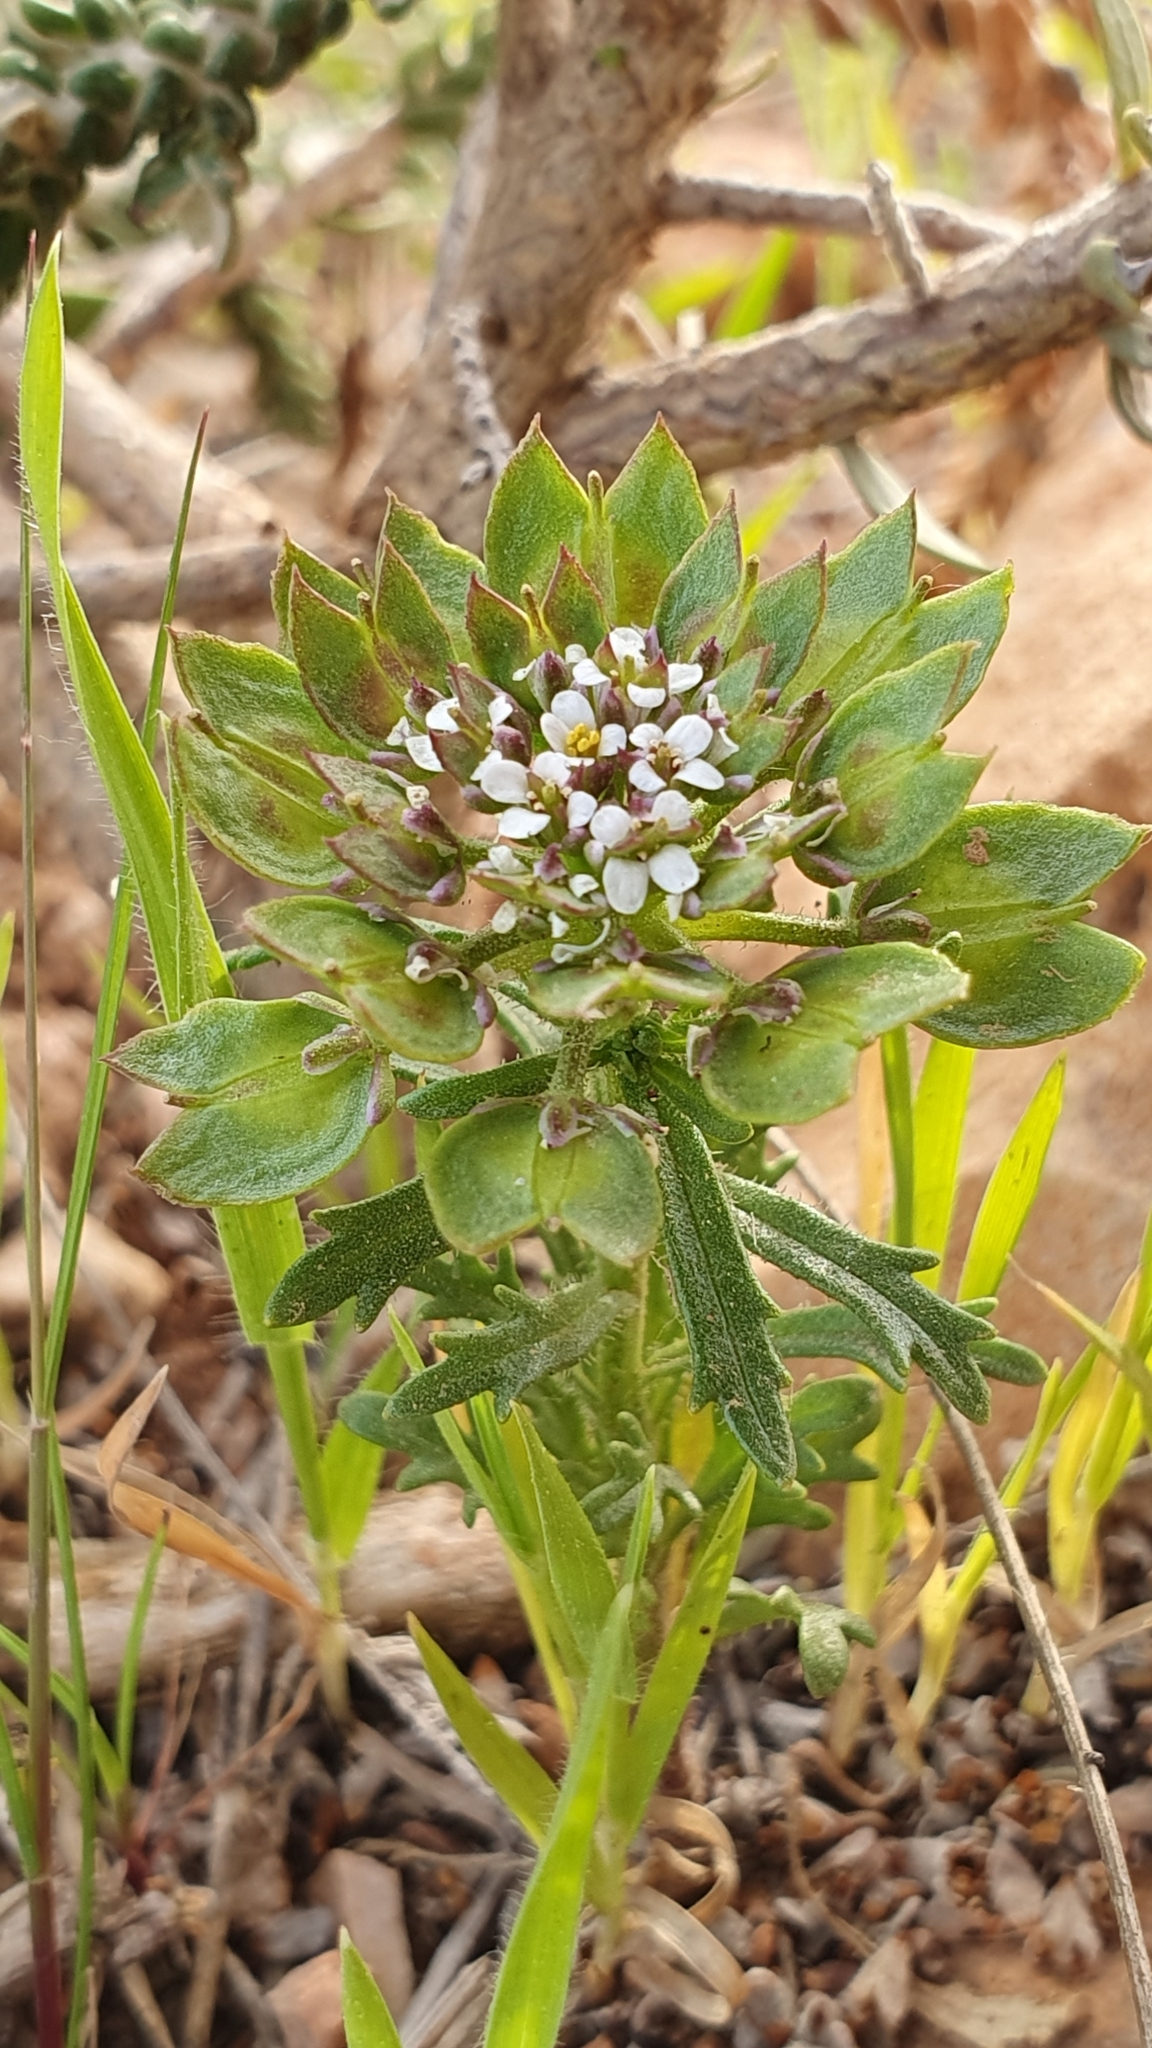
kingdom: Plantae
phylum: Tracheophyta
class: Magnoliopsida
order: Brassicales
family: Brassicaceae
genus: Iberis
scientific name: Iberis odorata
